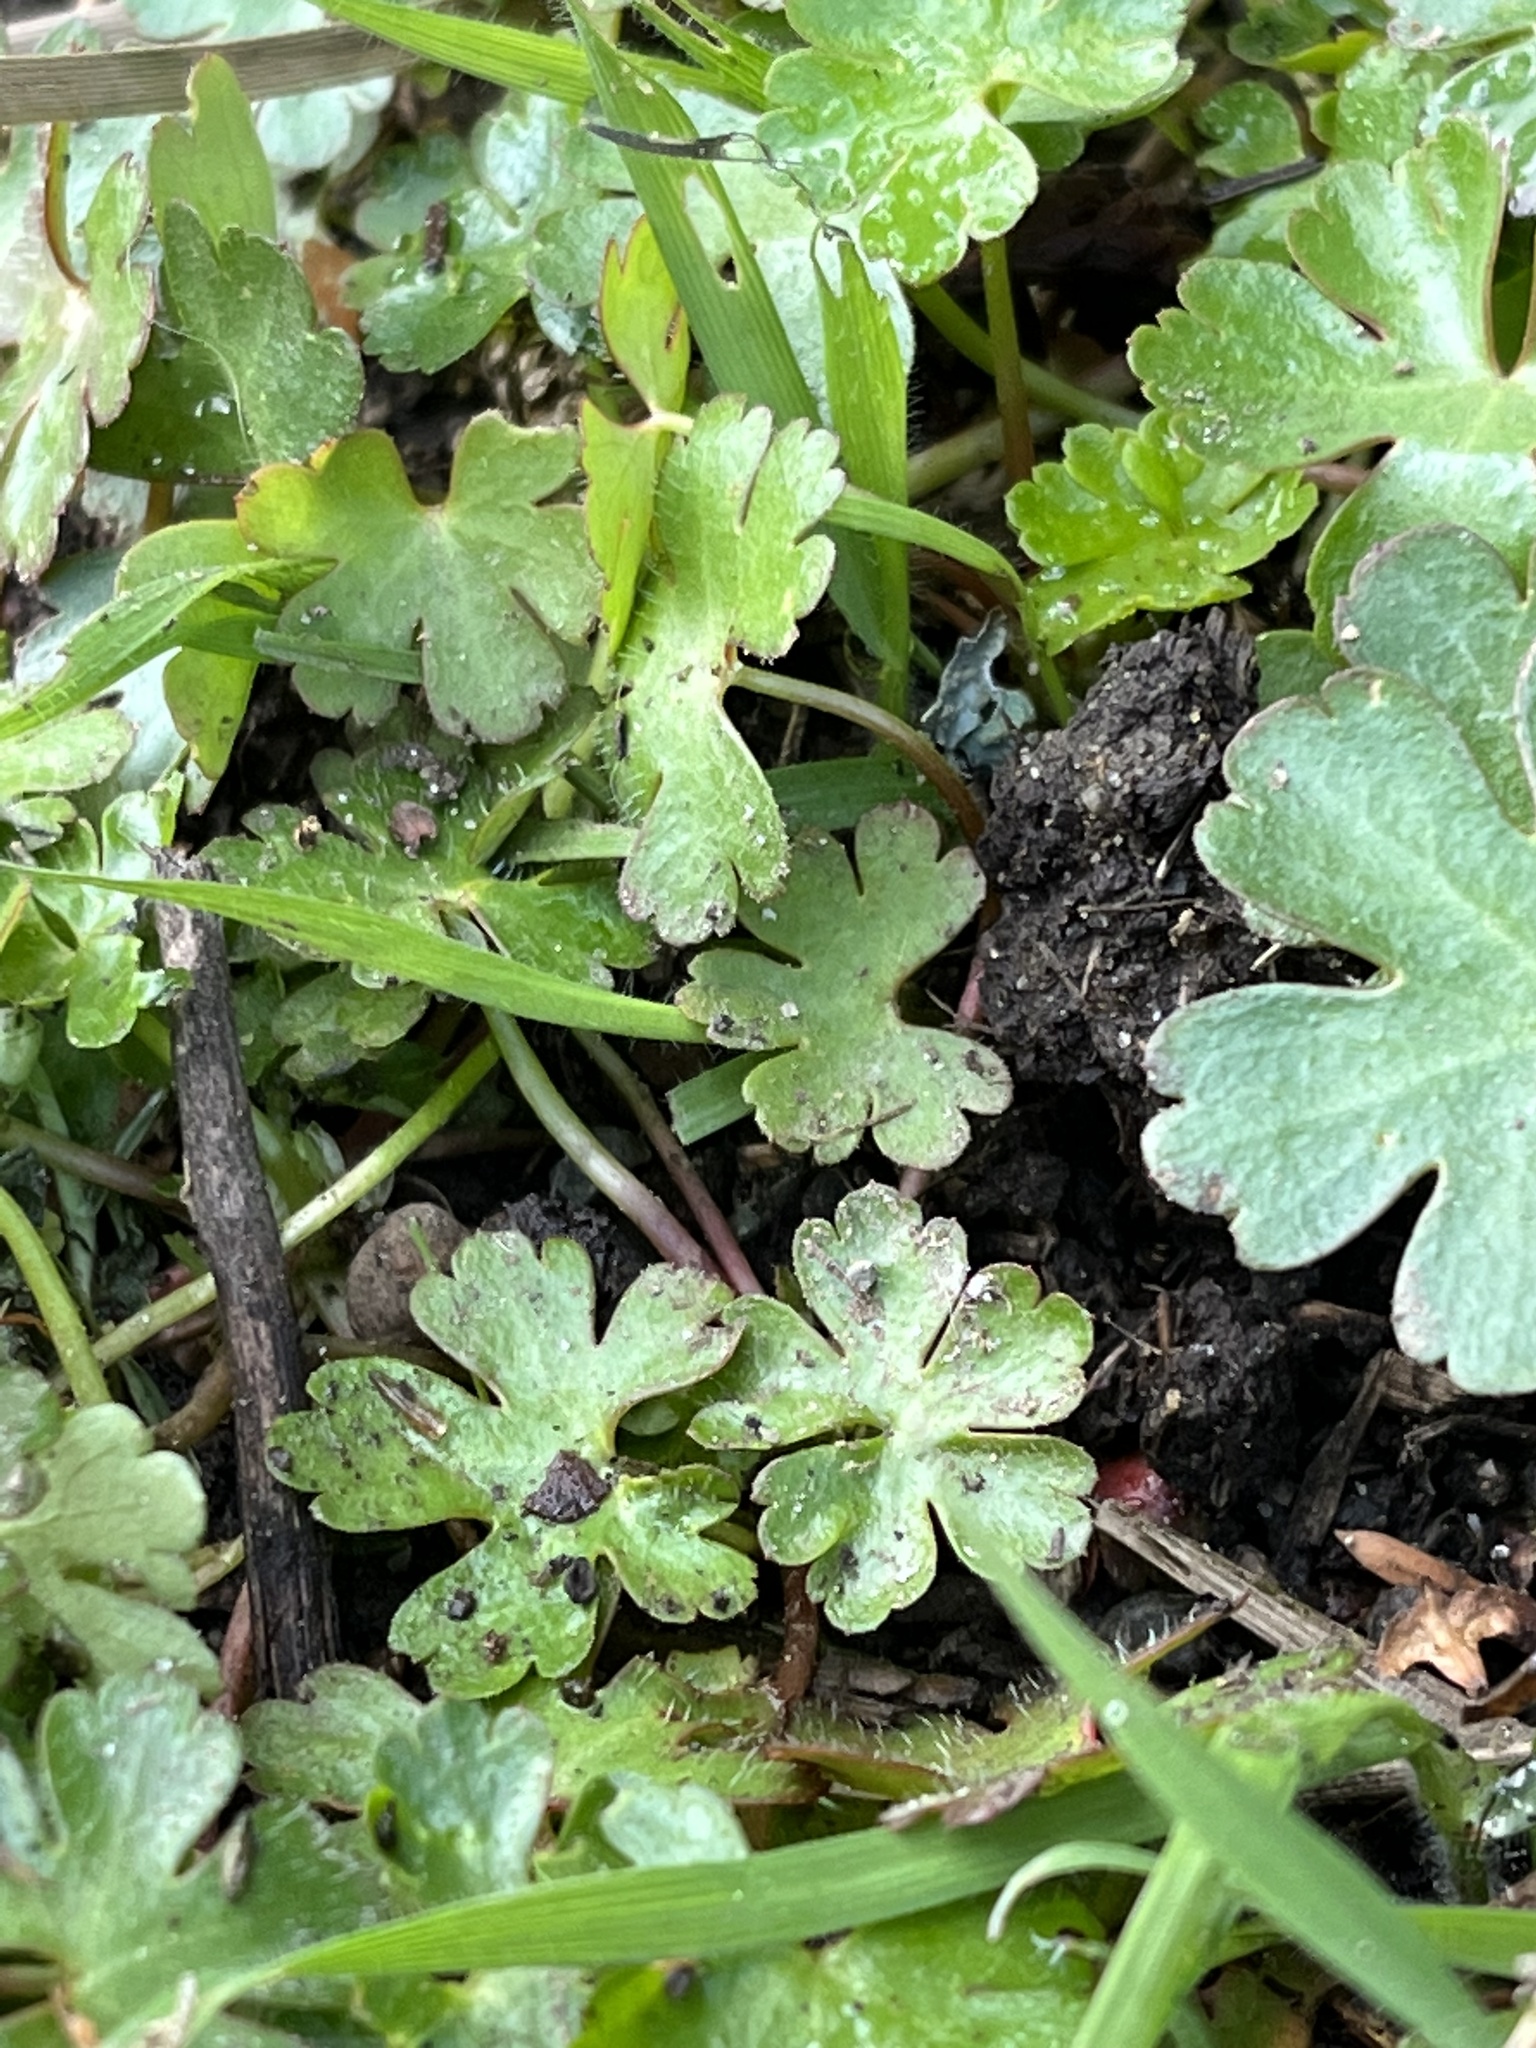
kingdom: Plantae
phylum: Tracheophyta
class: Magnoliopsida
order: Geraniales
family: Geraniaceae
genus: Geranium
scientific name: Geranium lucidum
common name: Shining crane's-bill
